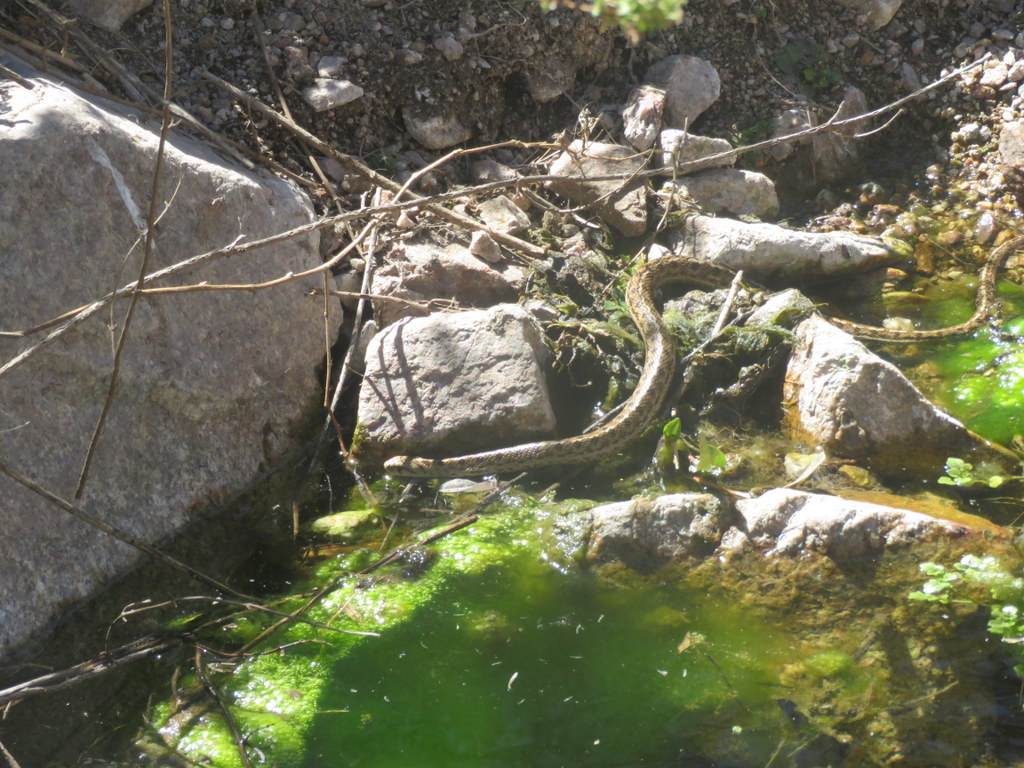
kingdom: Animalia
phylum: Chordata
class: Squamata
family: Colubridae
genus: Tachymenis
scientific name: Tachymenis peruviana
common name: Peru slender snake
